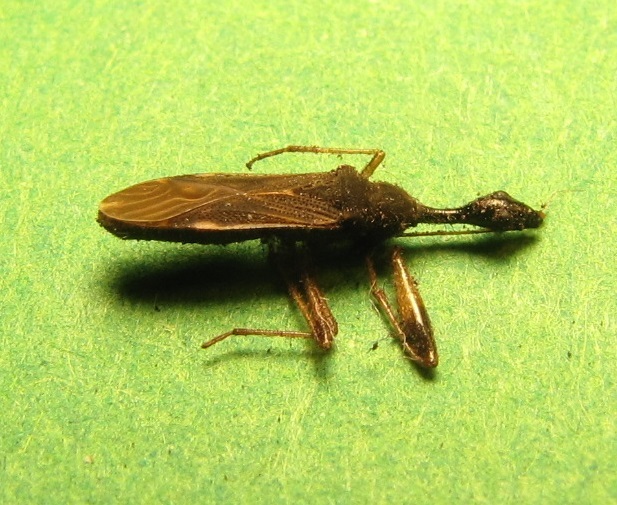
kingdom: Animalia
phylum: Arthropoda
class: Insecta
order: Hemiptera
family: Rhyparochromidae
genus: Myodocha
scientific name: Myodocha serripes
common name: Long-necked seed bug
